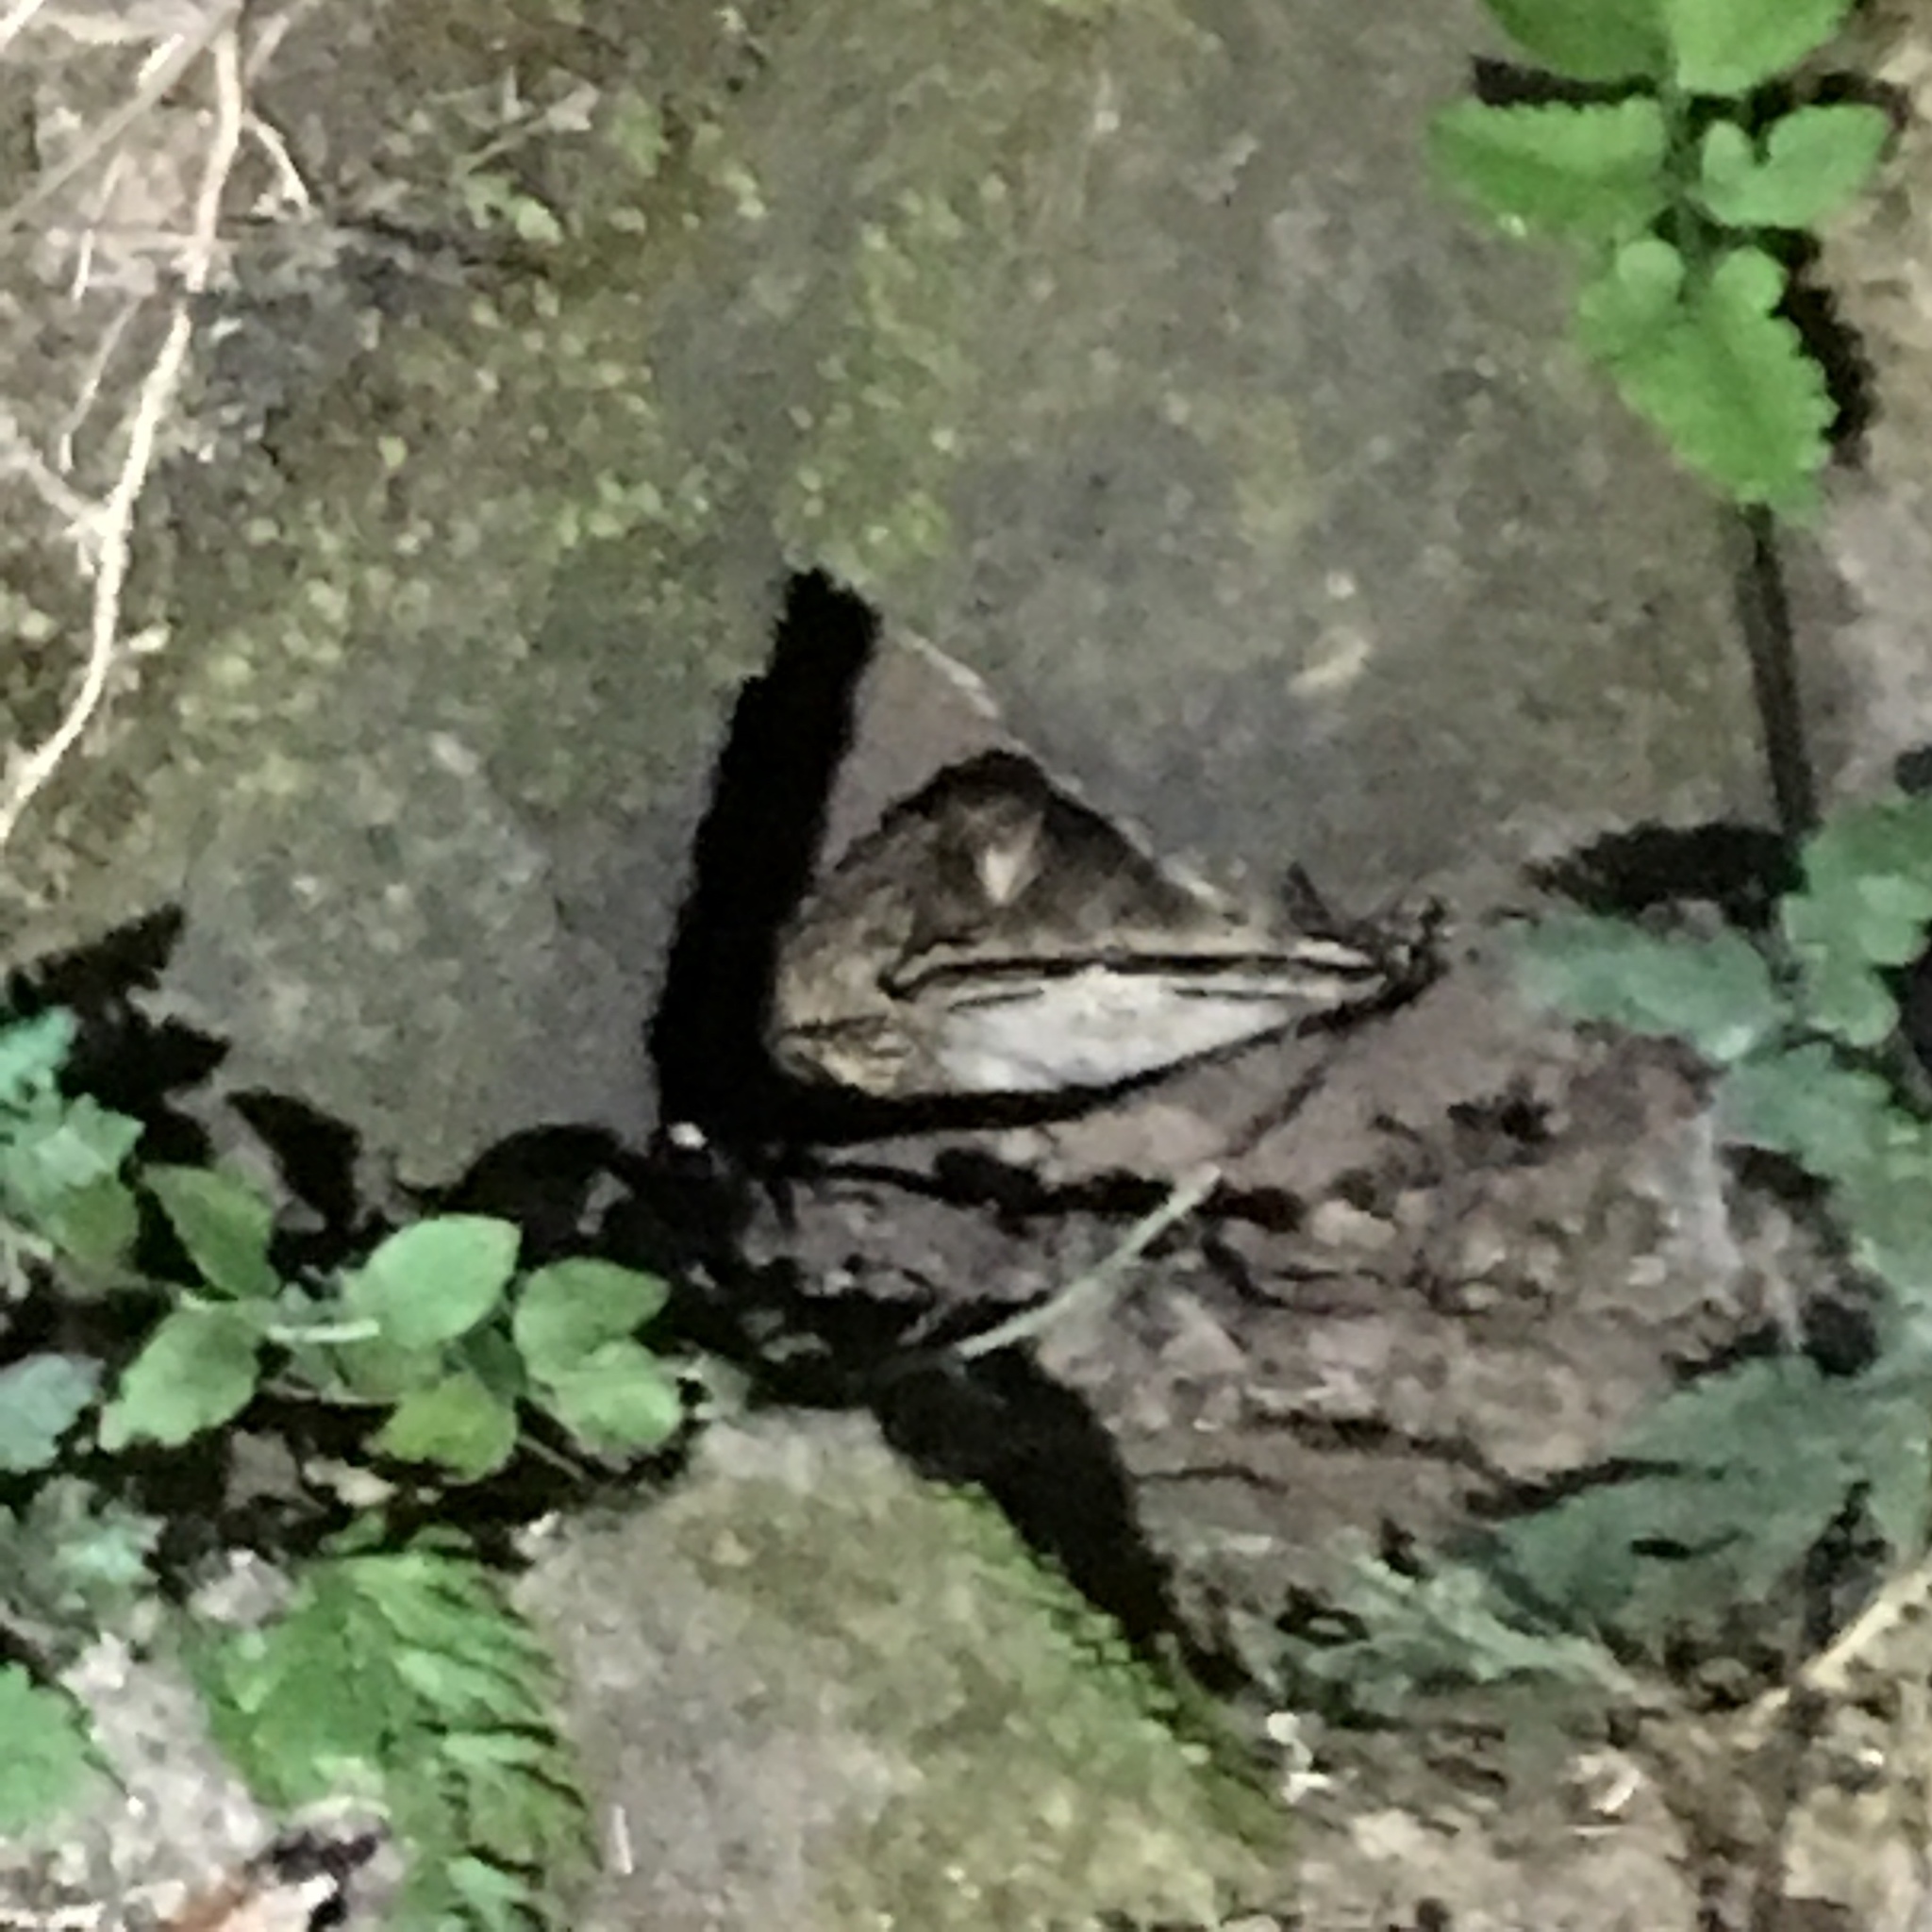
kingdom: Animalia
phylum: Chordata
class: Amphibia
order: Anura
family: Bufonidae
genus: Duttaphrynus
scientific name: Duttaphrynus melanostictus
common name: Common sunda toad
